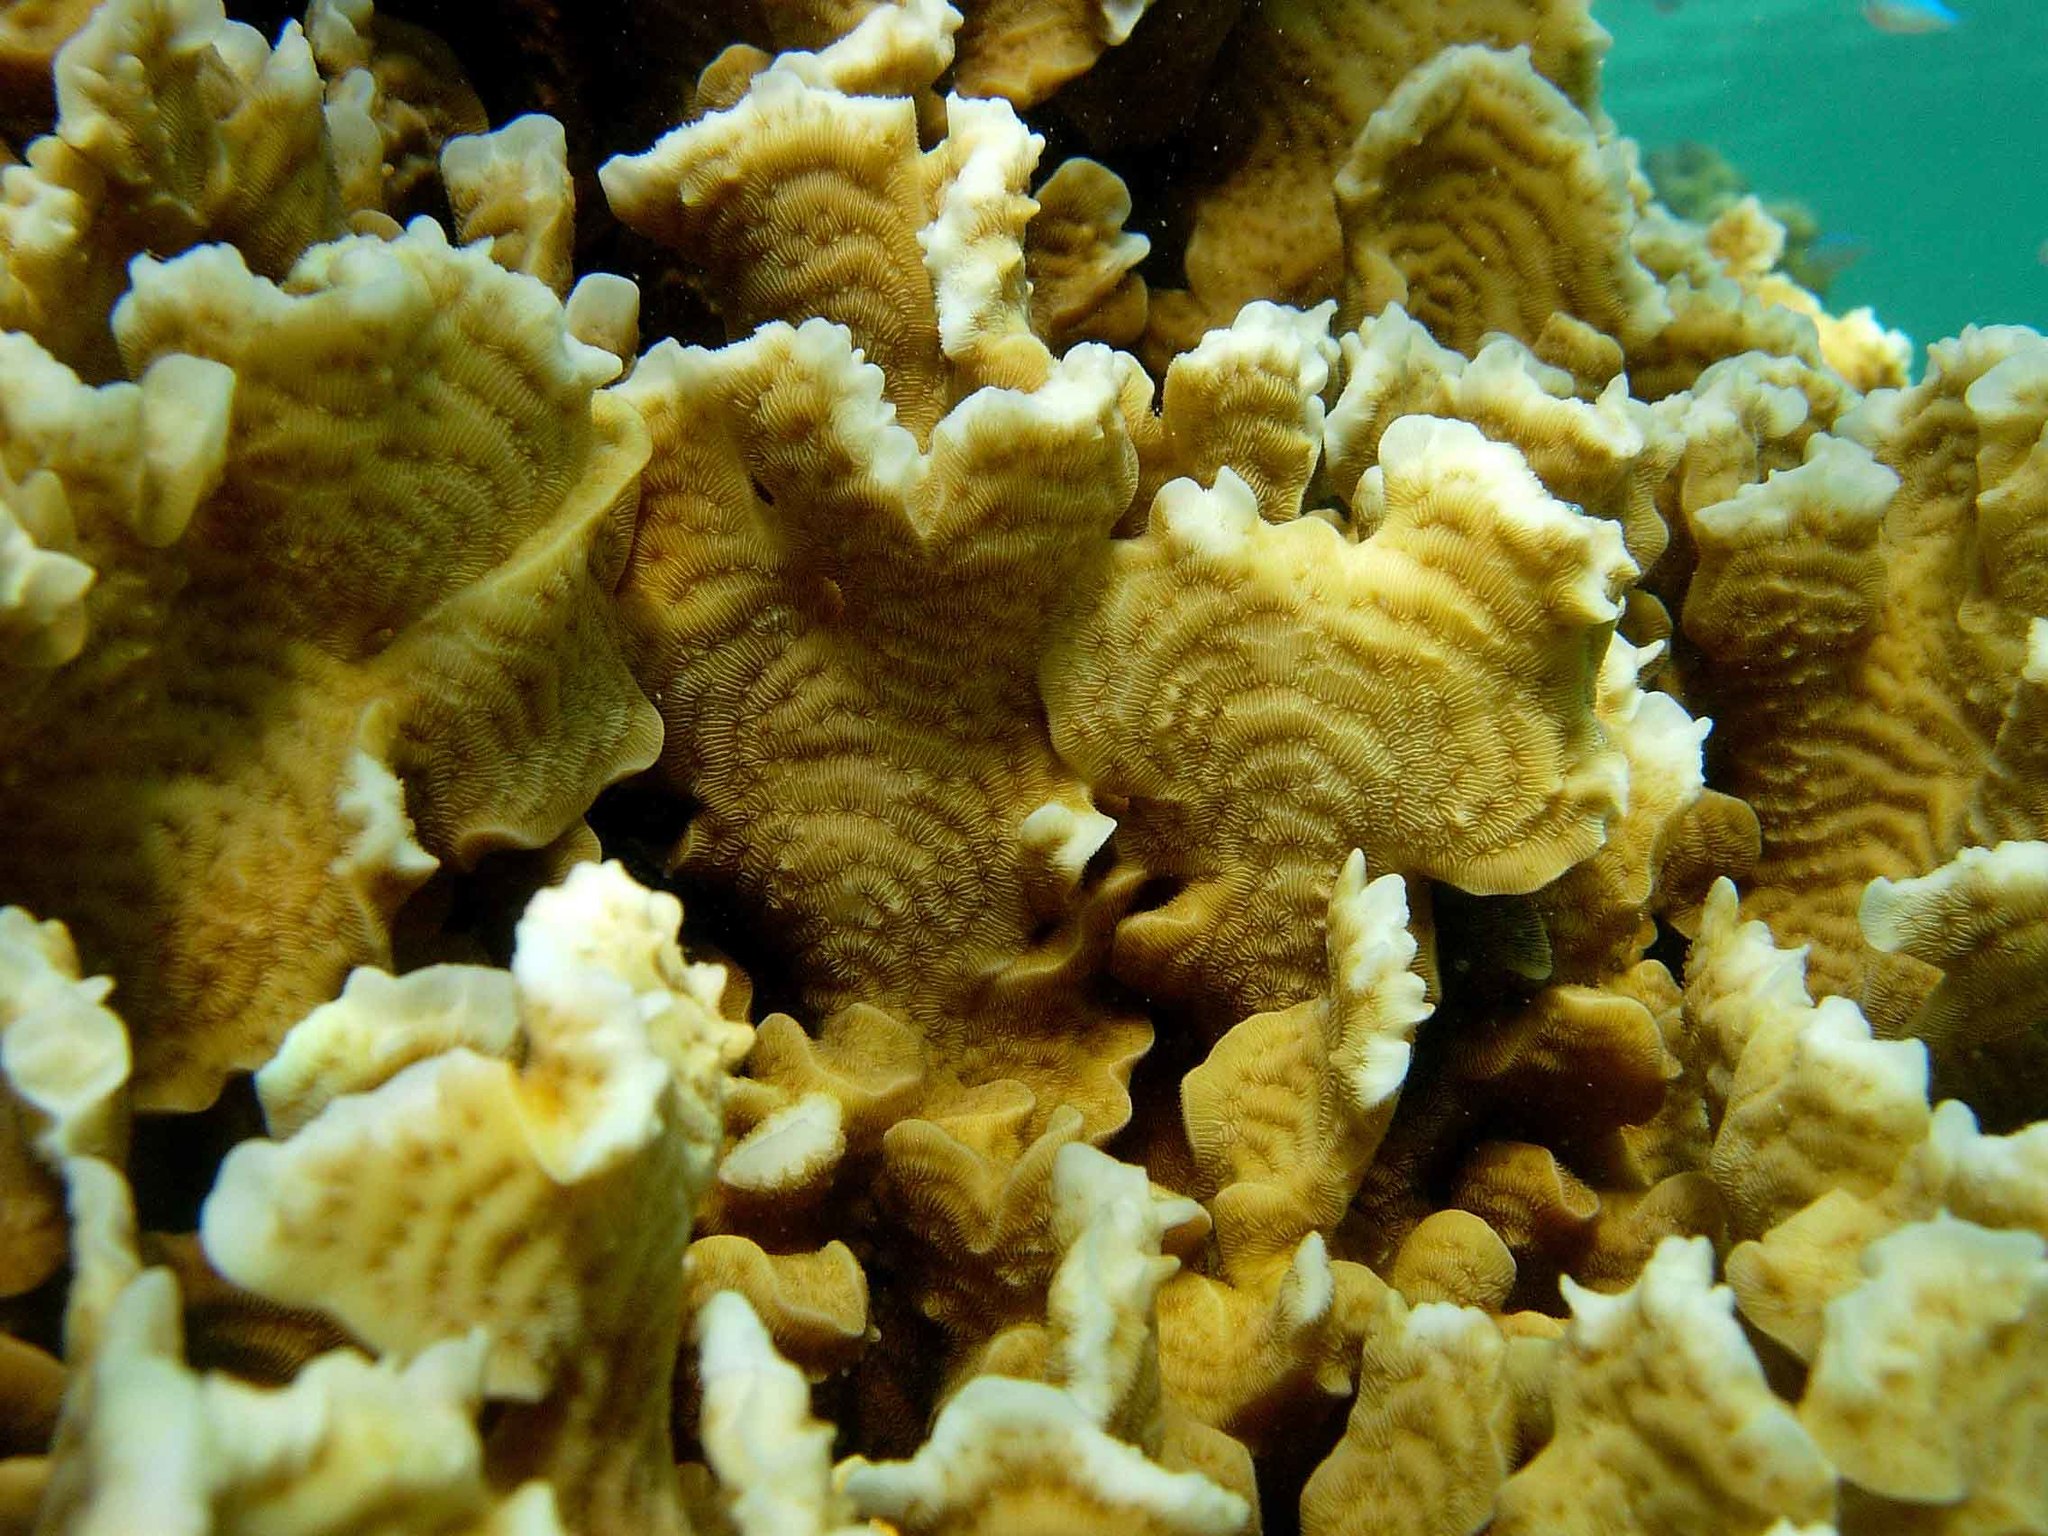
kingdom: Animalia
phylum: Cnidaria
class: Anthozoa
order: Scleractinia
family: Agariciidae
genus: Pavona
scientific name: Pavona cactus
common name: Leaf coral
